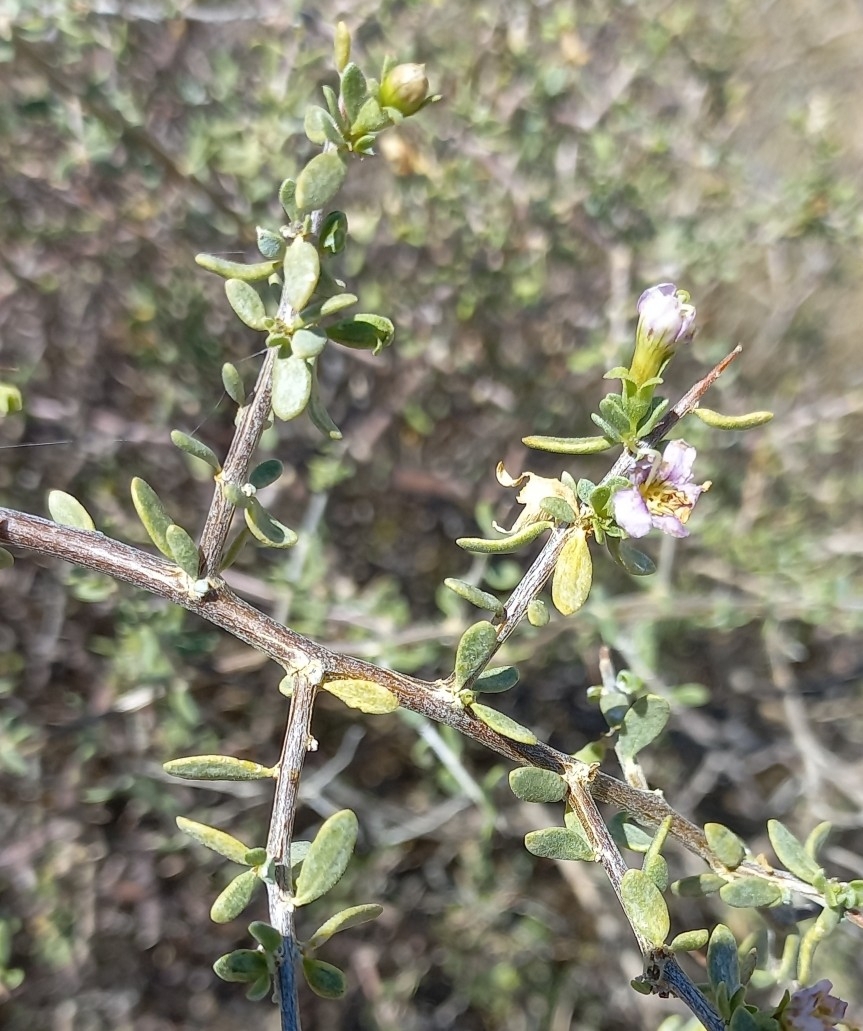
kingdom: Plantae
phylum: Tracheophyta
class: Magnoliopsida
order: Solanales
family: Solanaceae
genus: Lycium
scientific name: Lycium schizocalyx
